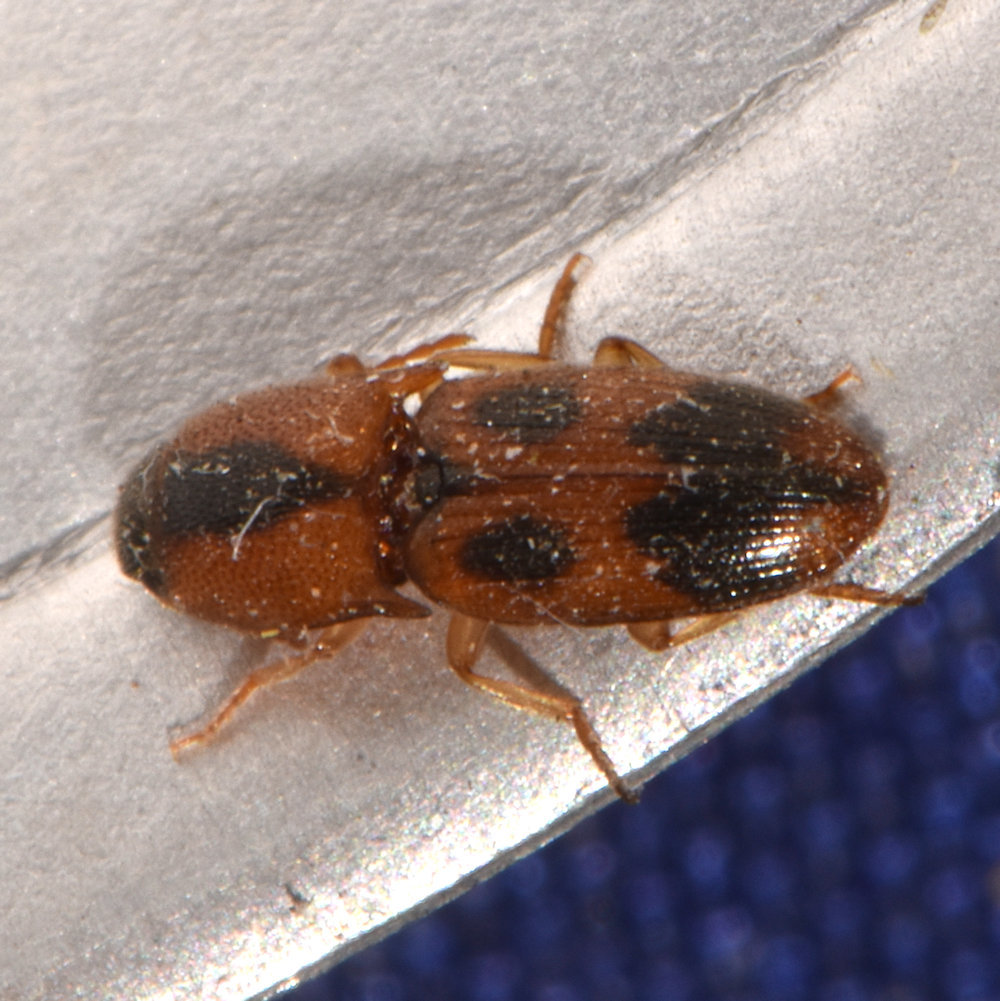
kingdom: Animalia
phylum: Arthropoda
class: Insecta
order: Coleoptera
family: Elateridae
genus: Aeolus
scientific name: Aeolus mellillus
